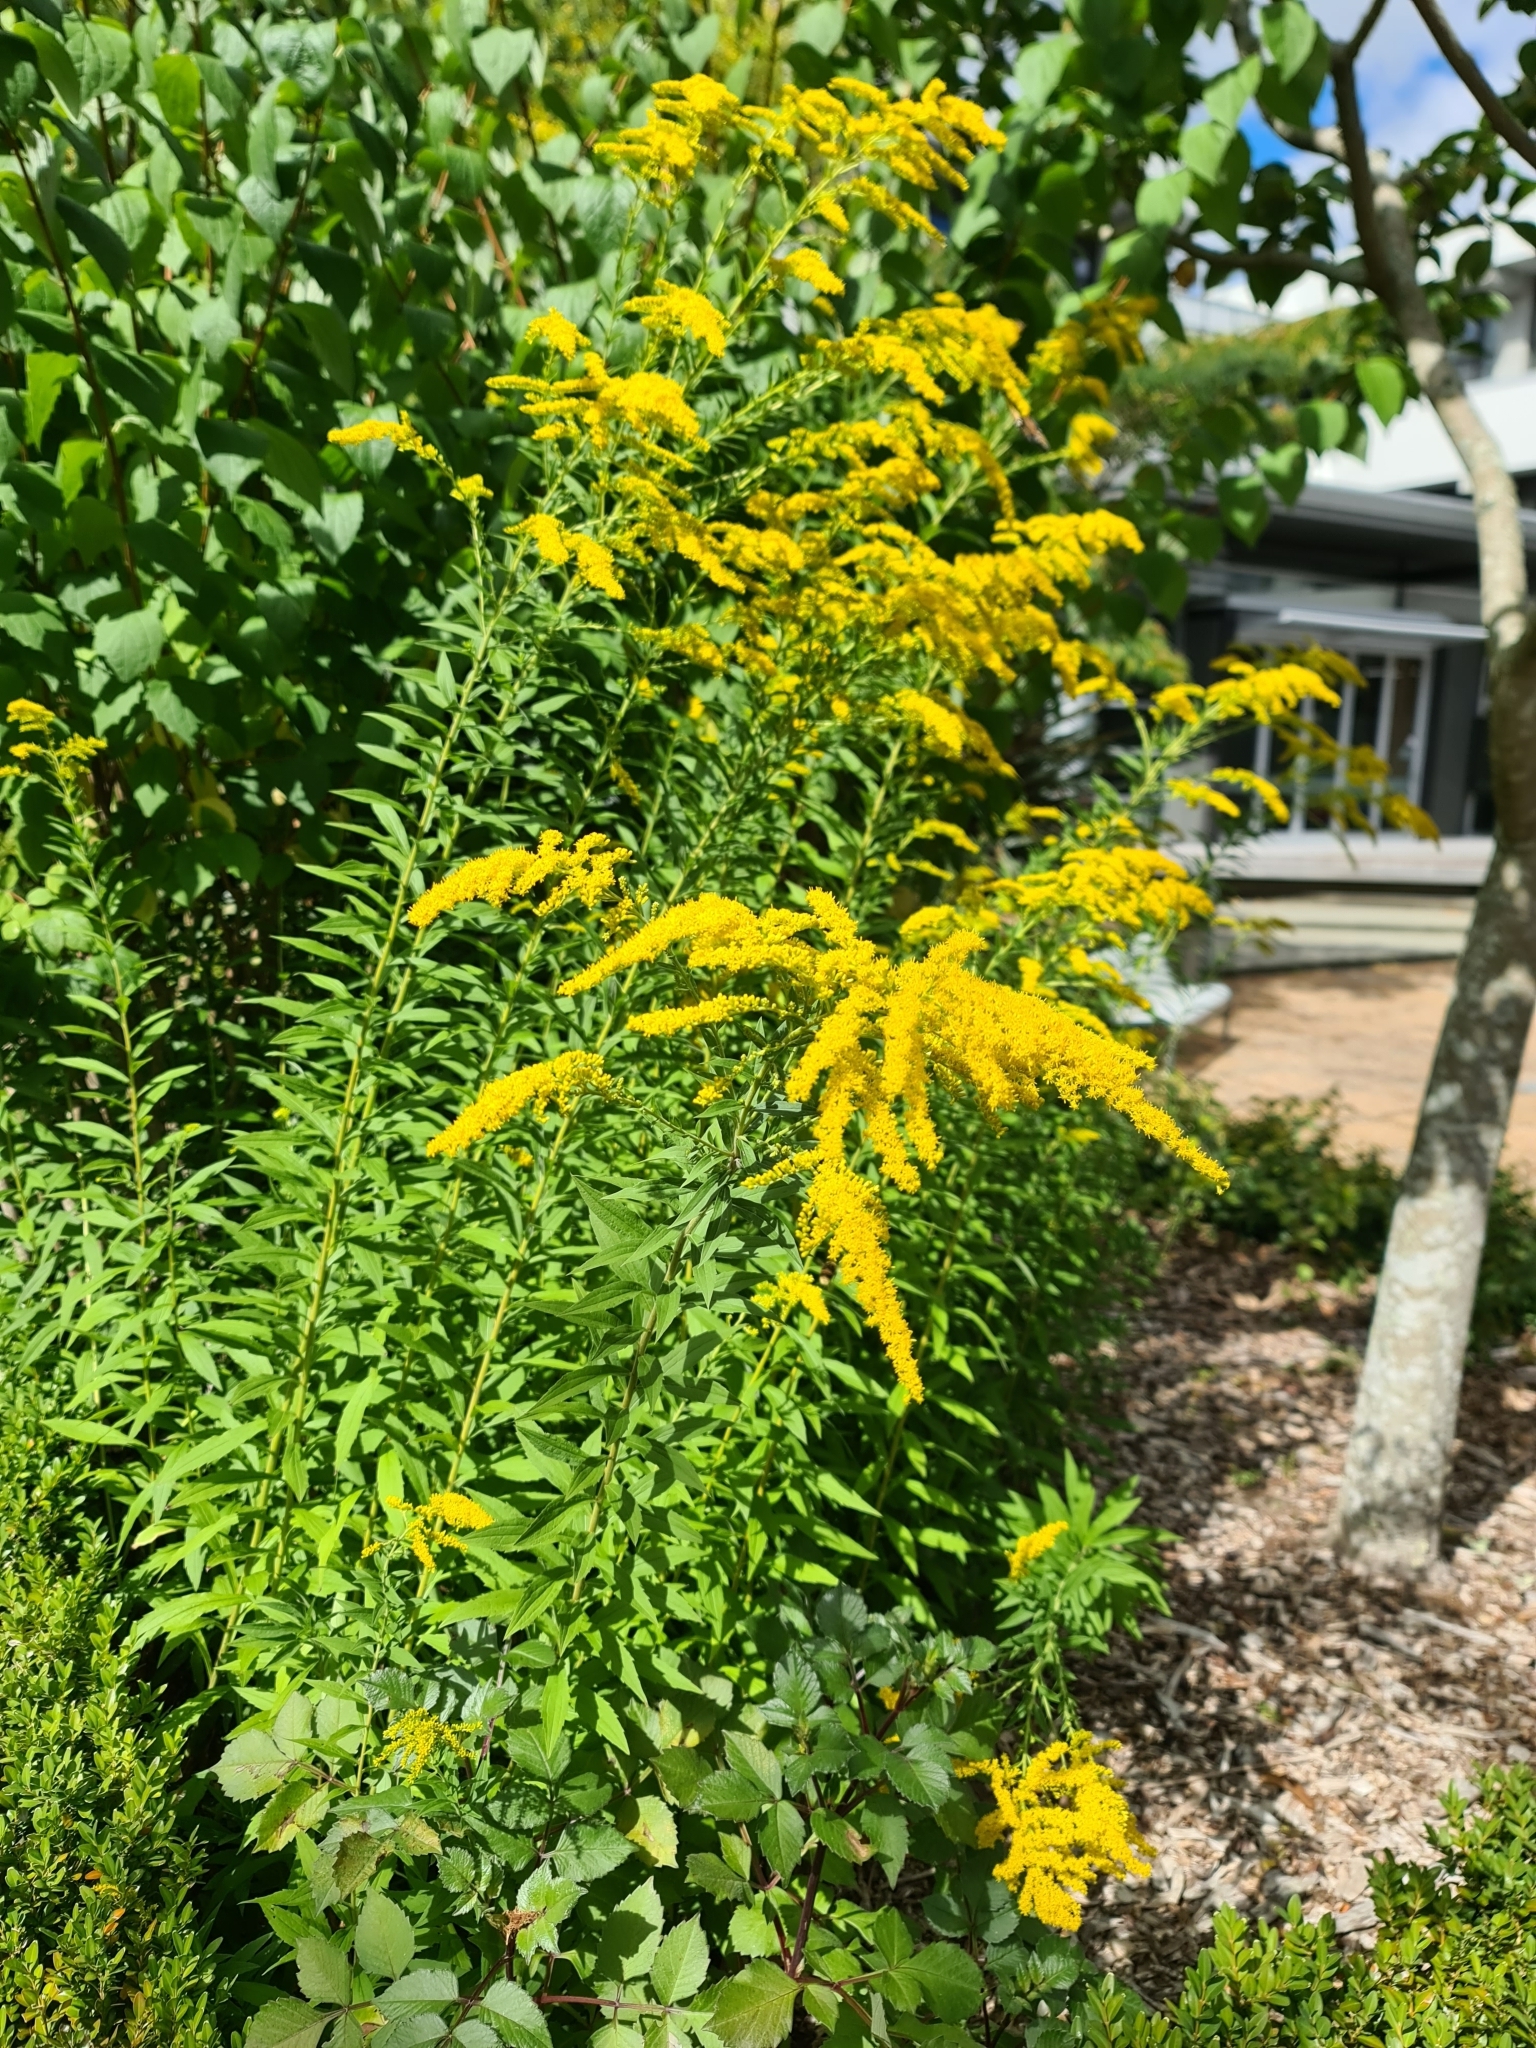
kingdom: Plantae
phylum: Tracheophyta
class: Magnoliopsida
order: Asterales
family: Asteraceae
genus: Solidago
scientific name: Solidago canadensis
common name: Canada goldenrod
